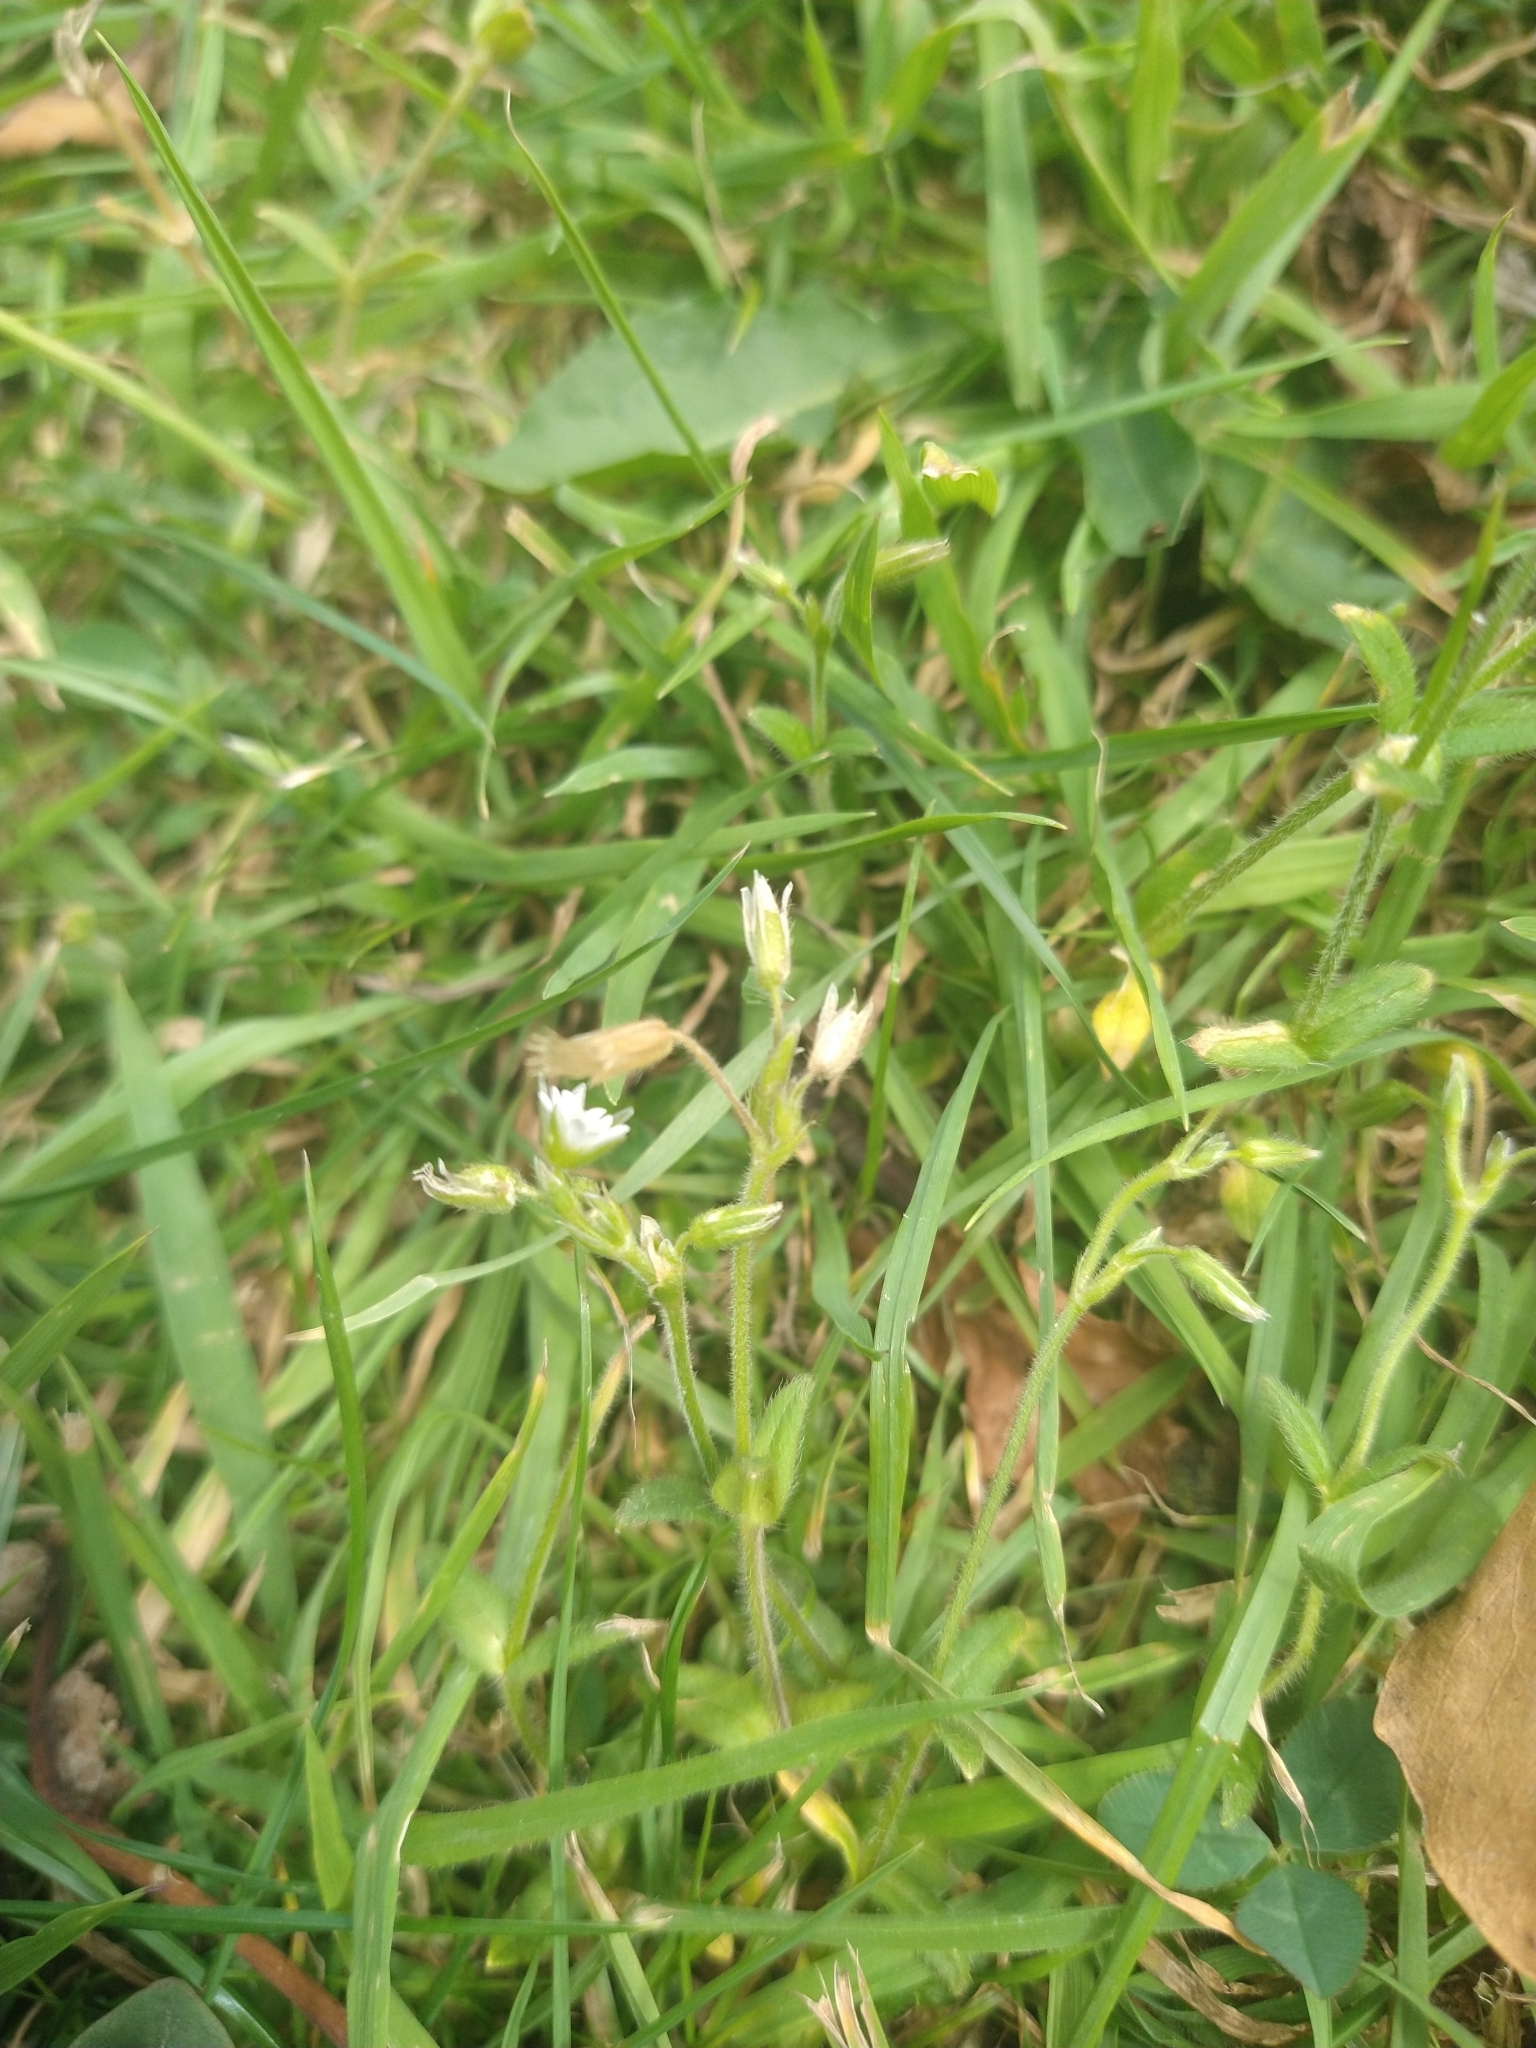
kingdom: Plantae
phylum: Tracheophyta
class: Magnoliopsida
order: Caryophyllales
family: Caryophyllaceae
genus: Cerastium
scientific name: Cerastium fontanum
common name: Common mouse-ear
